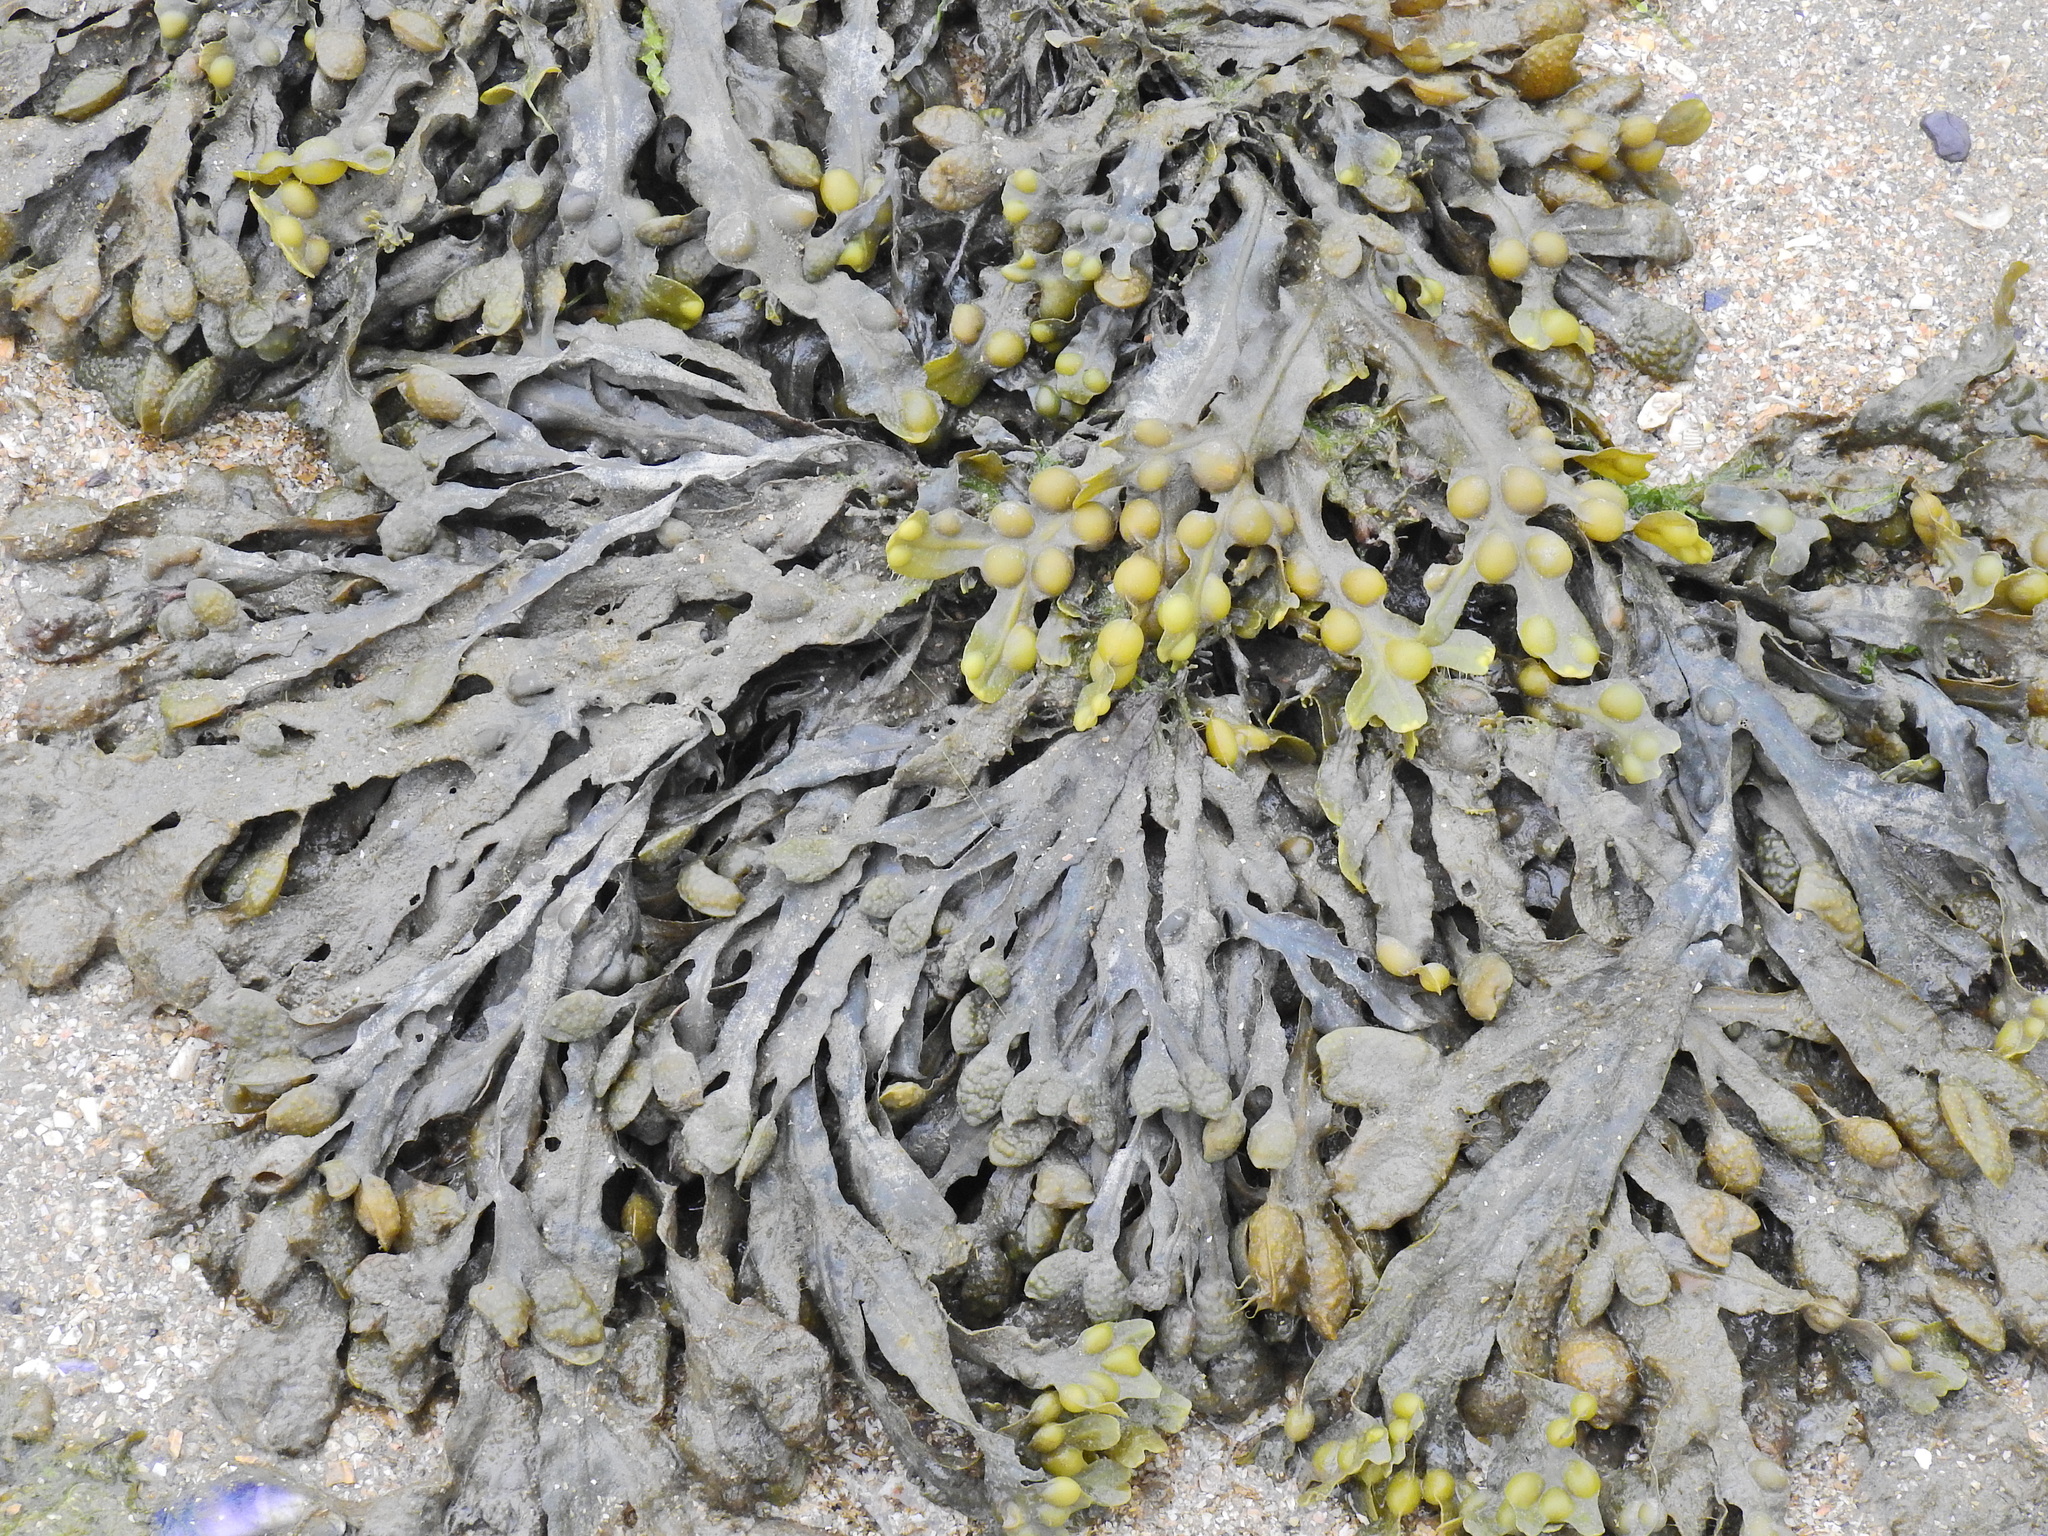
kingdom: Chromista
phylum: Ochrophyta
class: Phaeophyceae
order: Fucales
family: Fucaceae
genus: Fucus
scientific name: Fucus vesiculosus
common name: Bladder wrack
